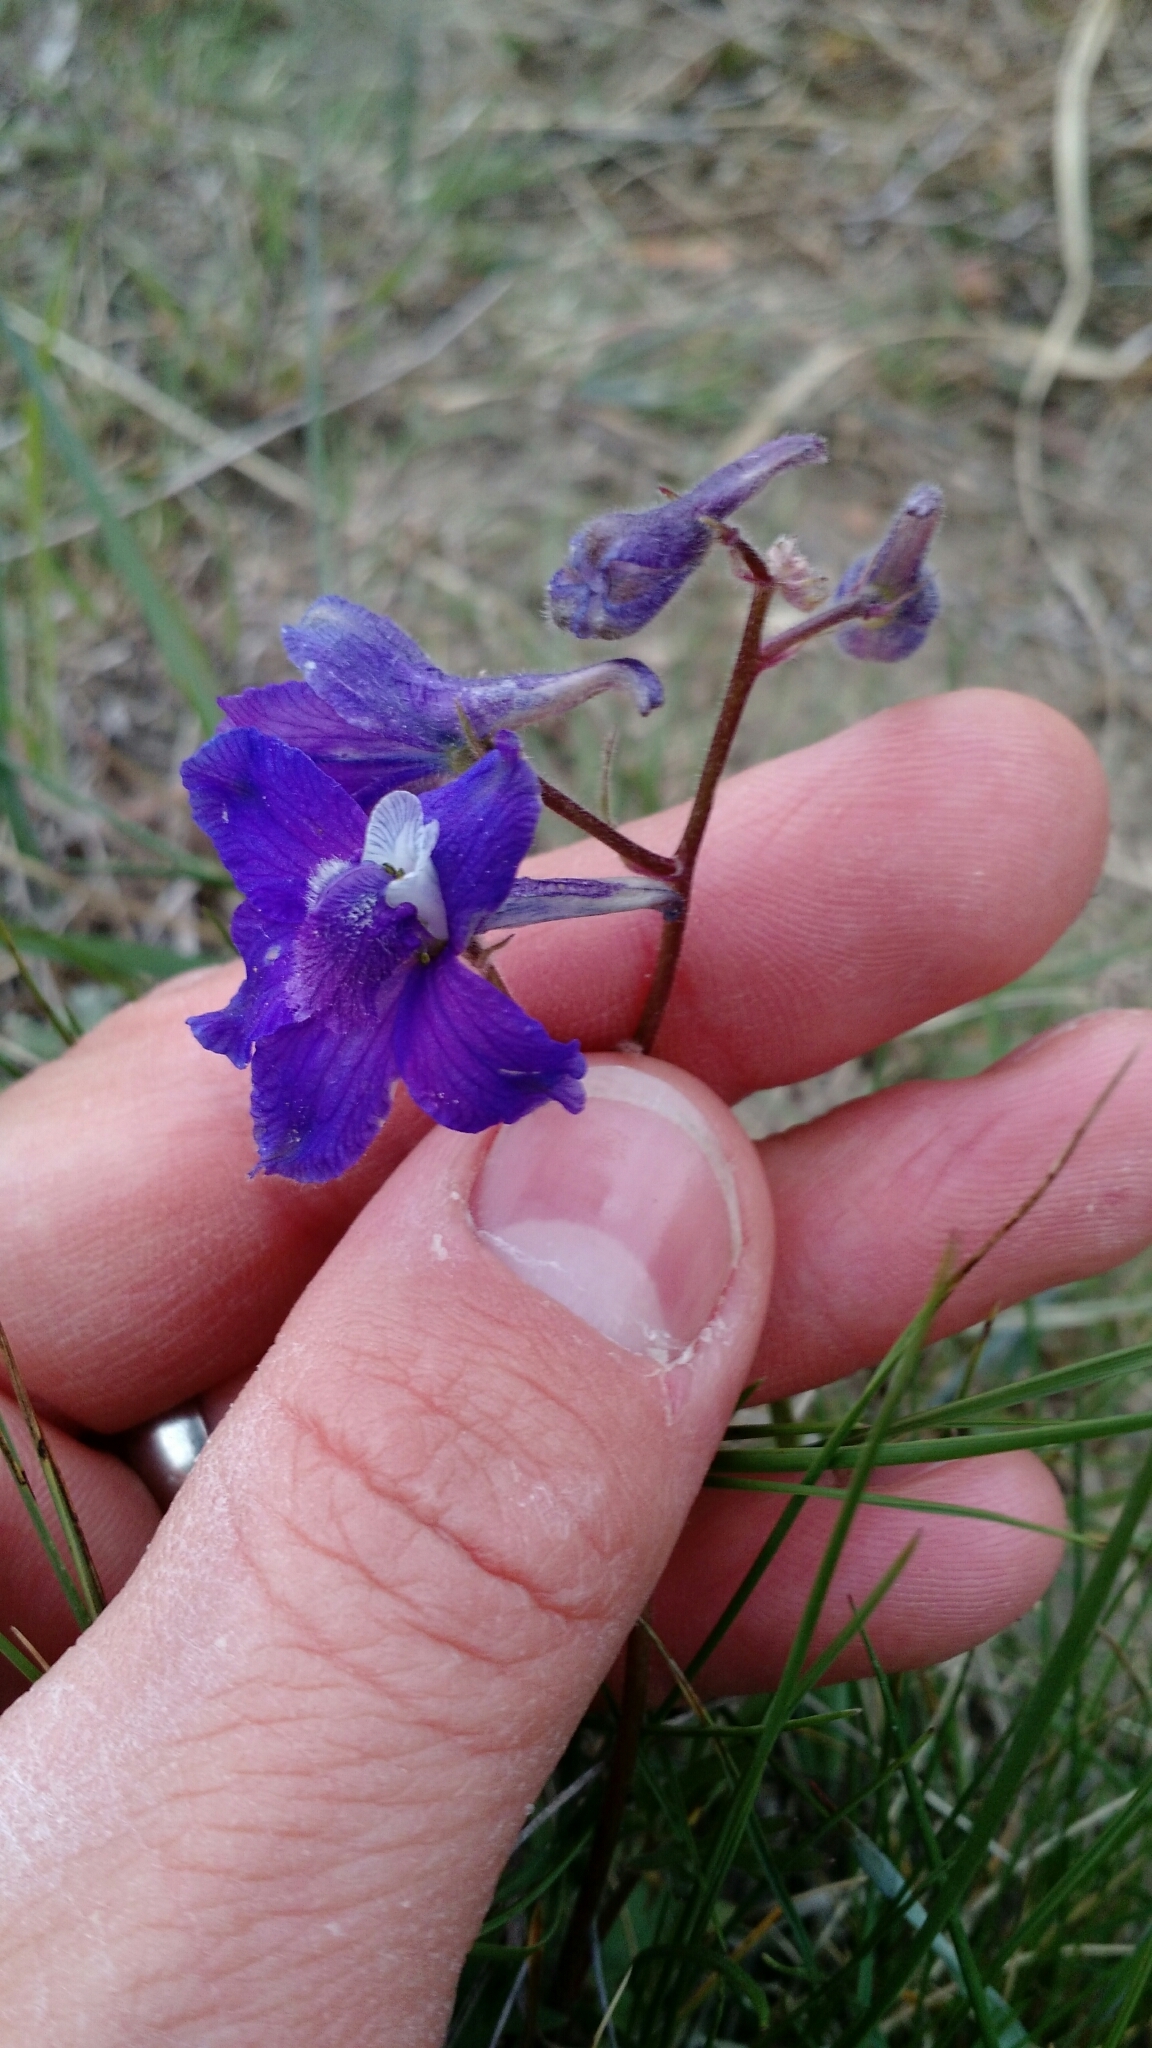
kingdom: Plantae
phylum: Tracheophyta
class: Magnoliopsida
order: Ranunculales
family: Ranunculaceae
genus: Delphinium
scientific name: Delphinium bicolor
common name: Low larkspur
